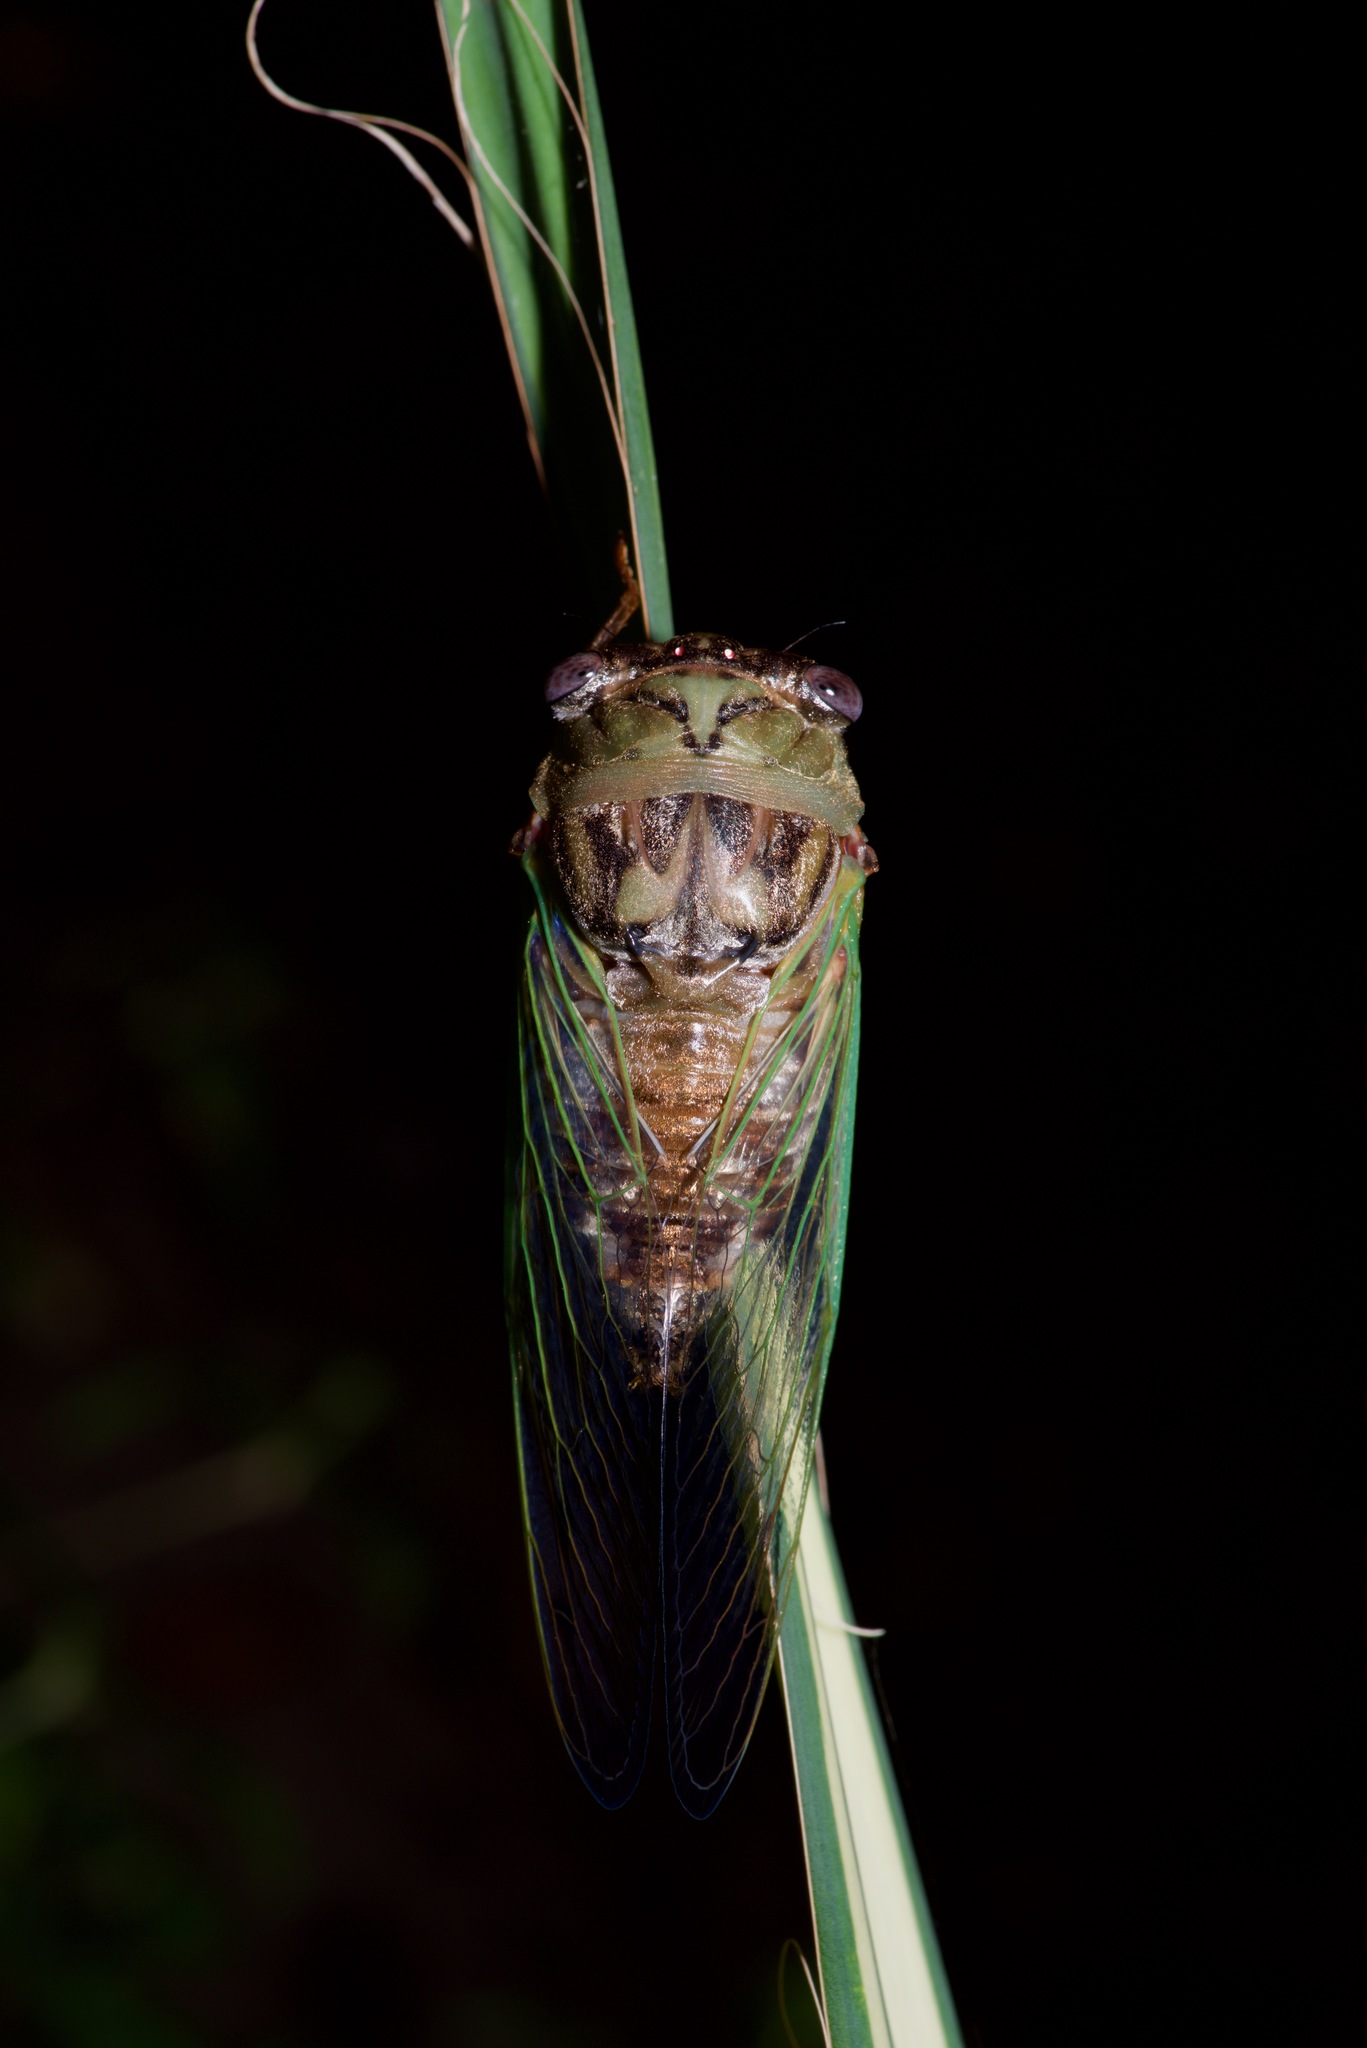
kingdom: Animalia
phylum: Arthropoda
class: Insecta
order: Hemiptera
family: Cicadidae
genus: Megatibicen
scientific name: Megatibicen resh
